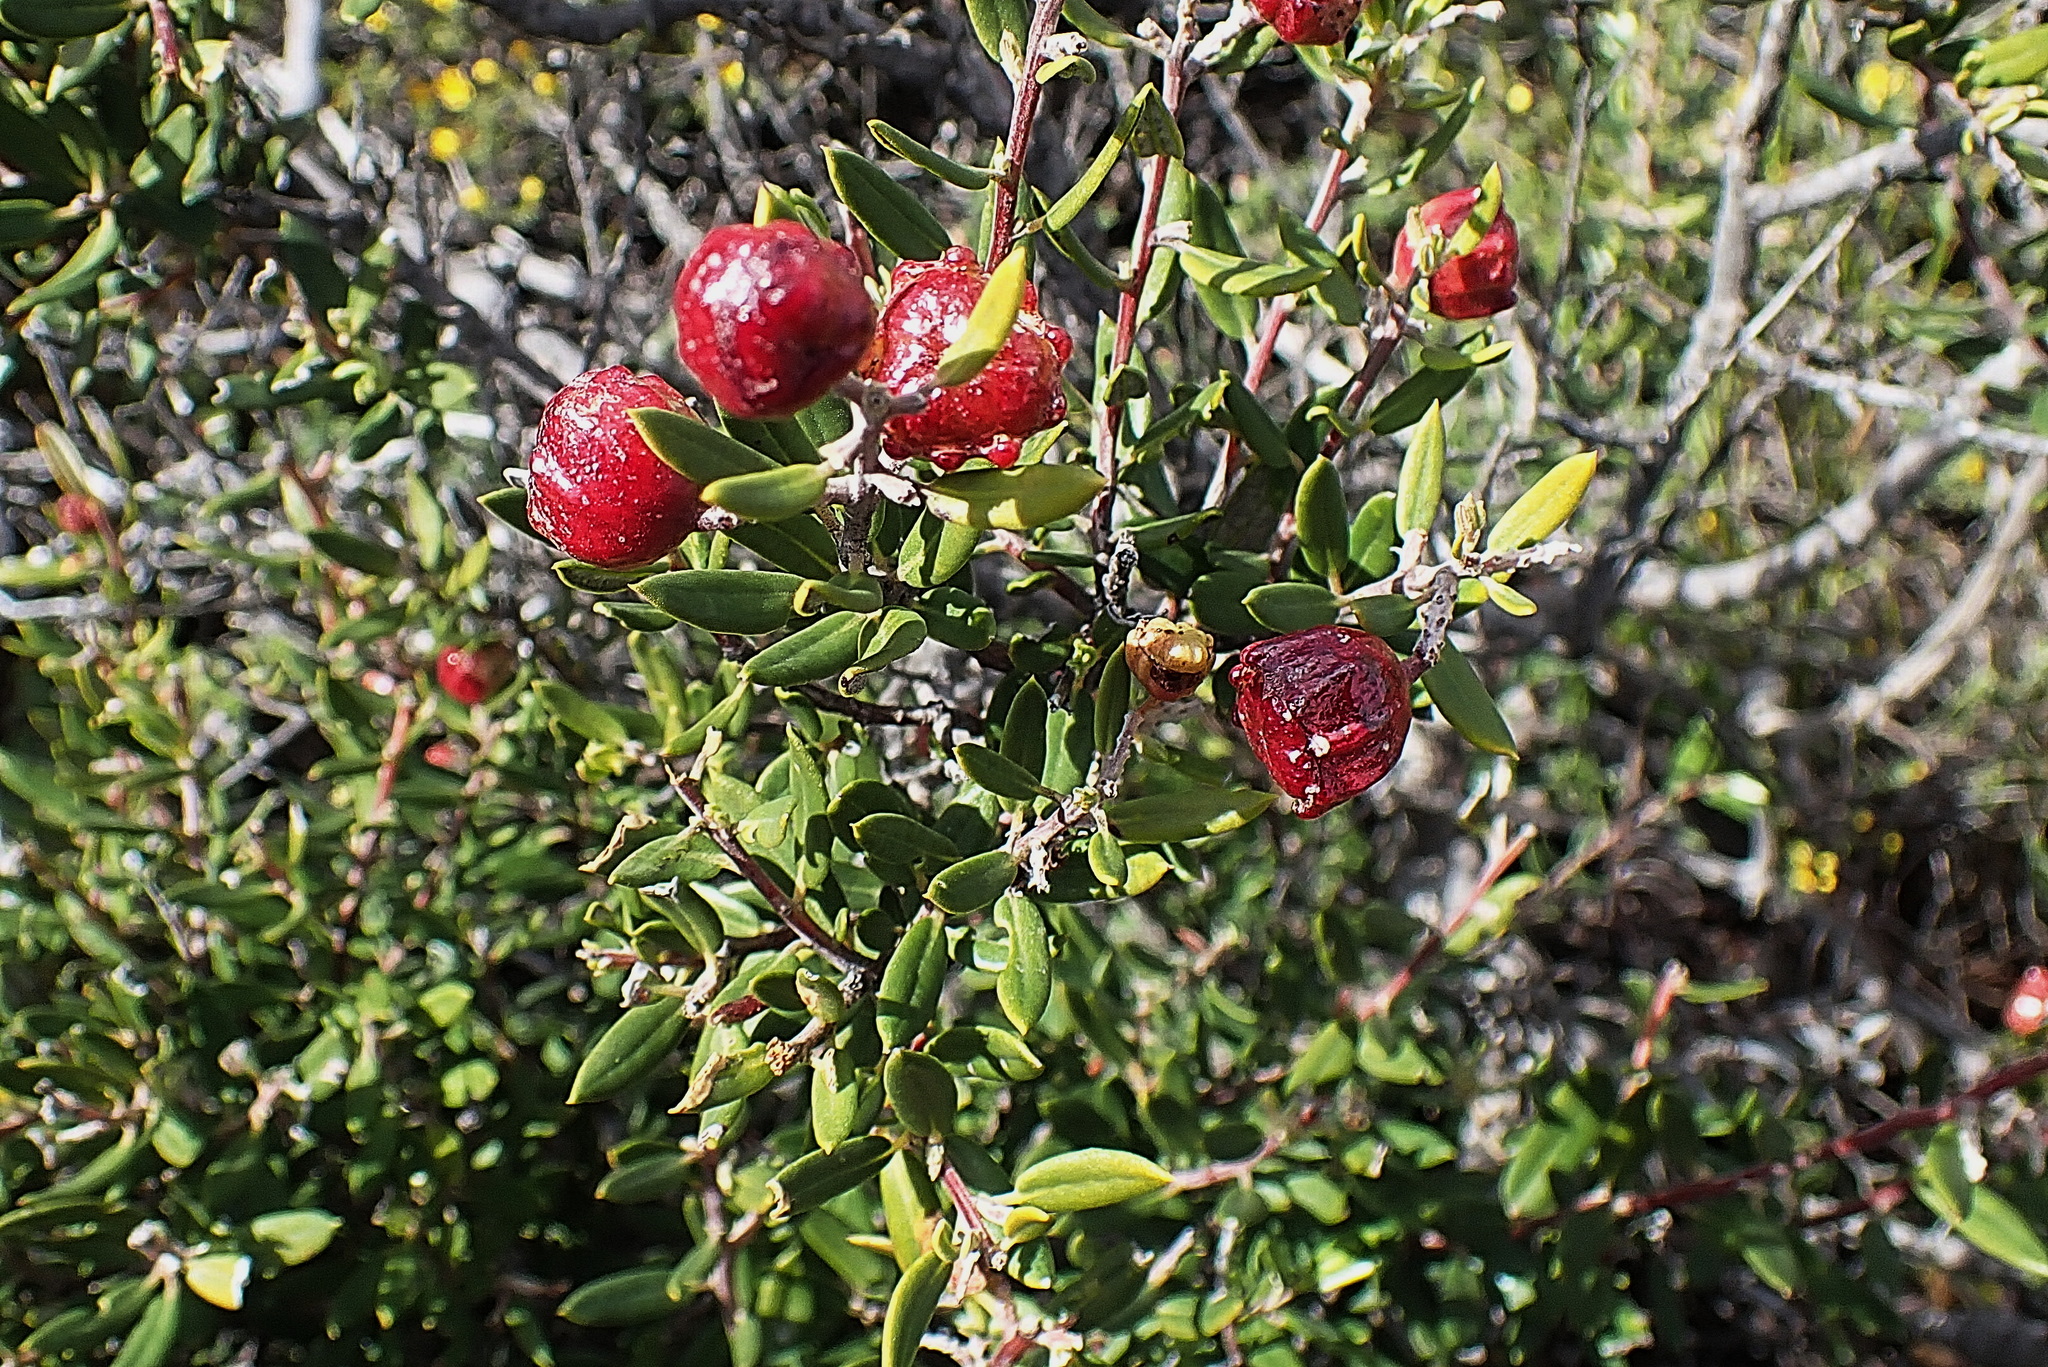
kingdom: Plantae
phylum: Tracheophyta
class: Magnoliopsida
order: Rosales
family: Rhamnaceae
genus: Phylica
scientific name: Phylica oleifolia
